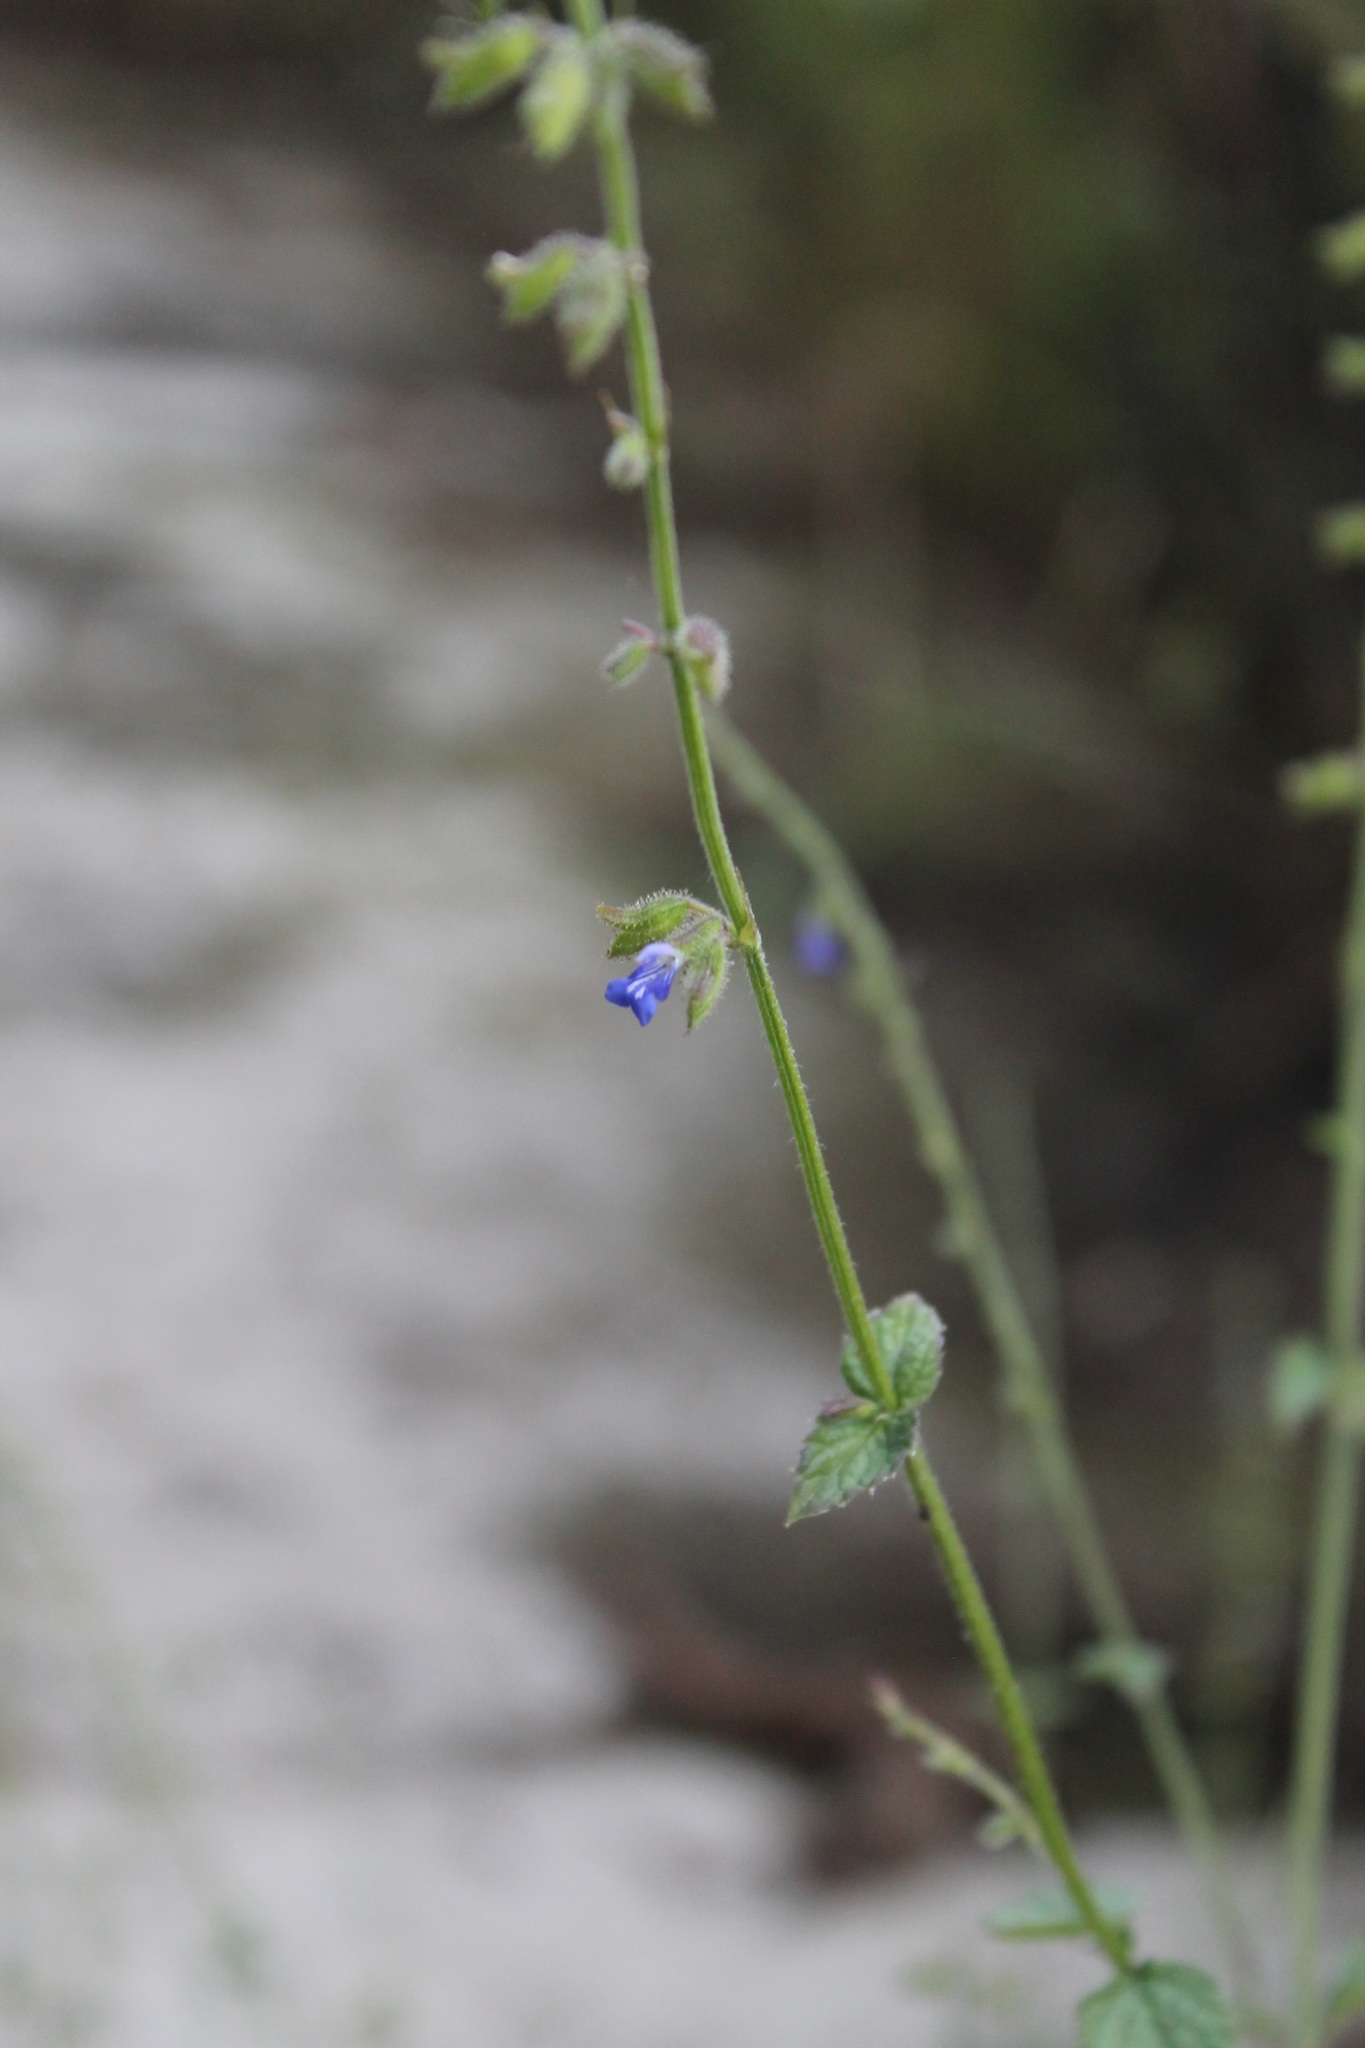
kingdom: Plantae
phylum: Tracheophyta
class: Magnoliopsida
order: Lamiales
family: Lamiaceae
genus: Salvia
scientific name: Salvia misella
